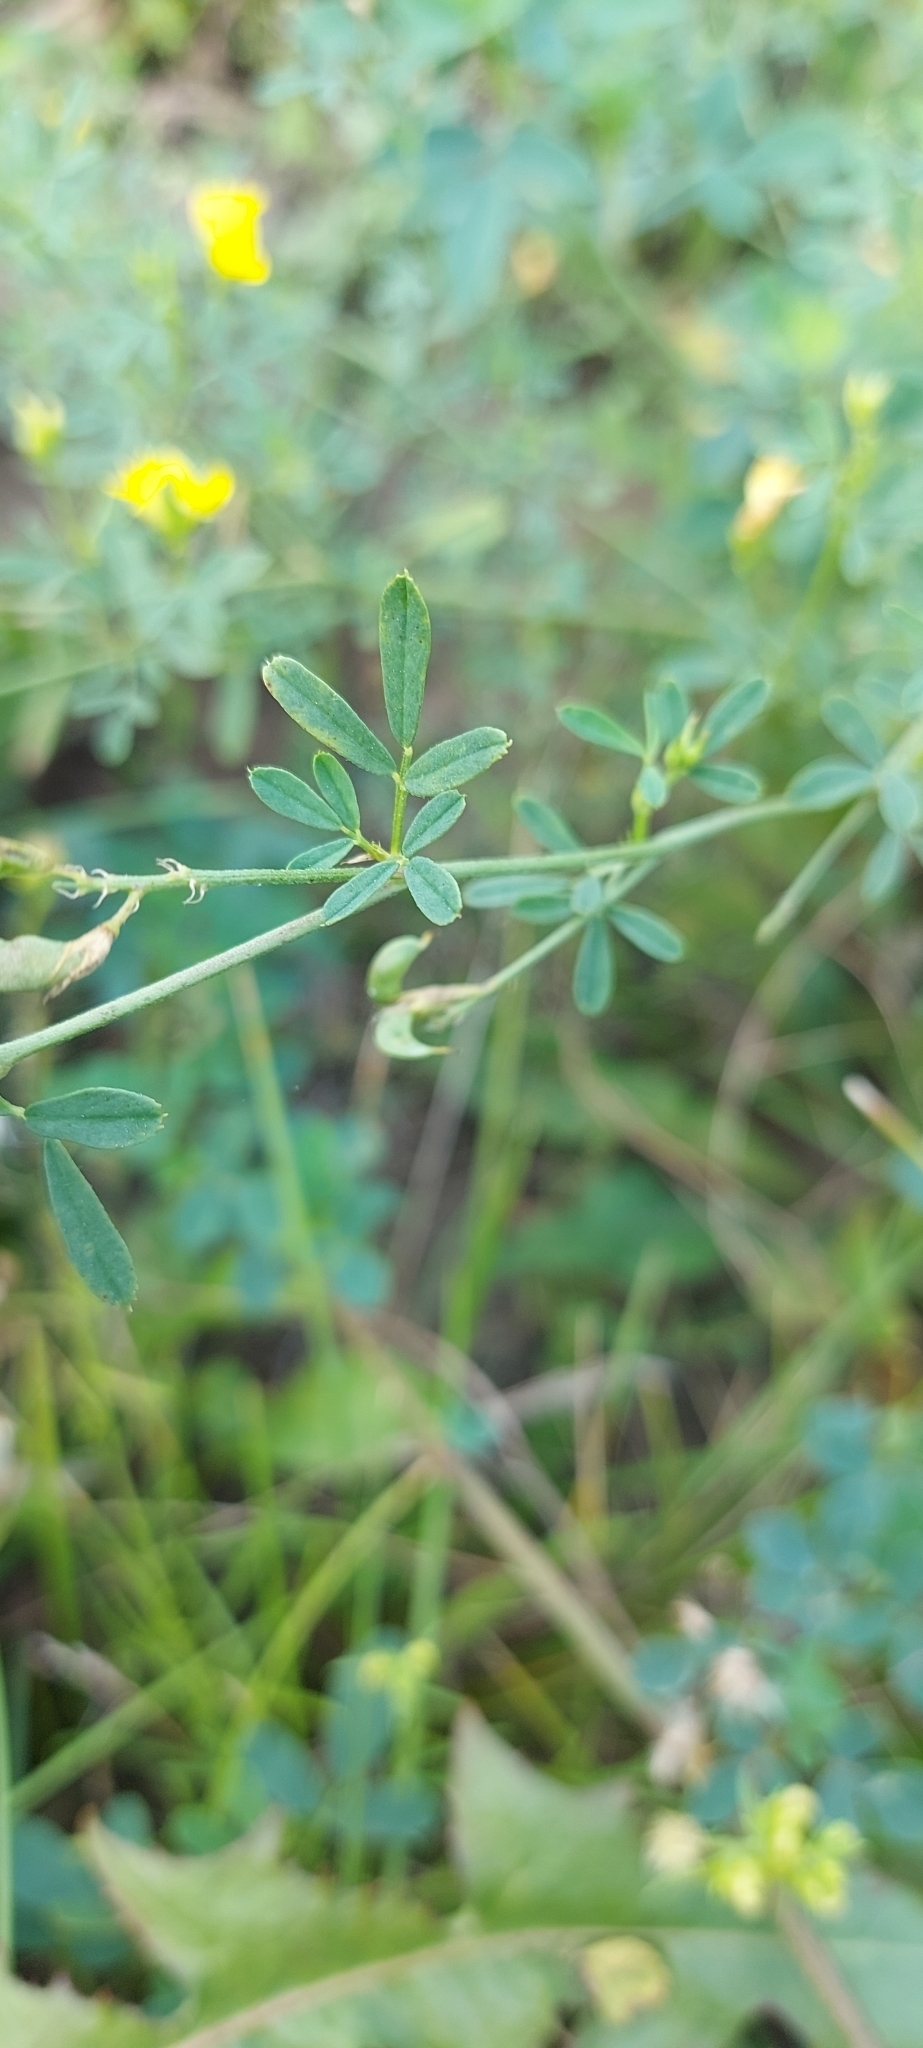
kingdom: Plantae
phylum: Tracheophyta
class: Magnoliopsida
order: Fabales
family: Fabaceae
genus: Medicago
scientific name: Medicago falcata
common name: Sickle medick
